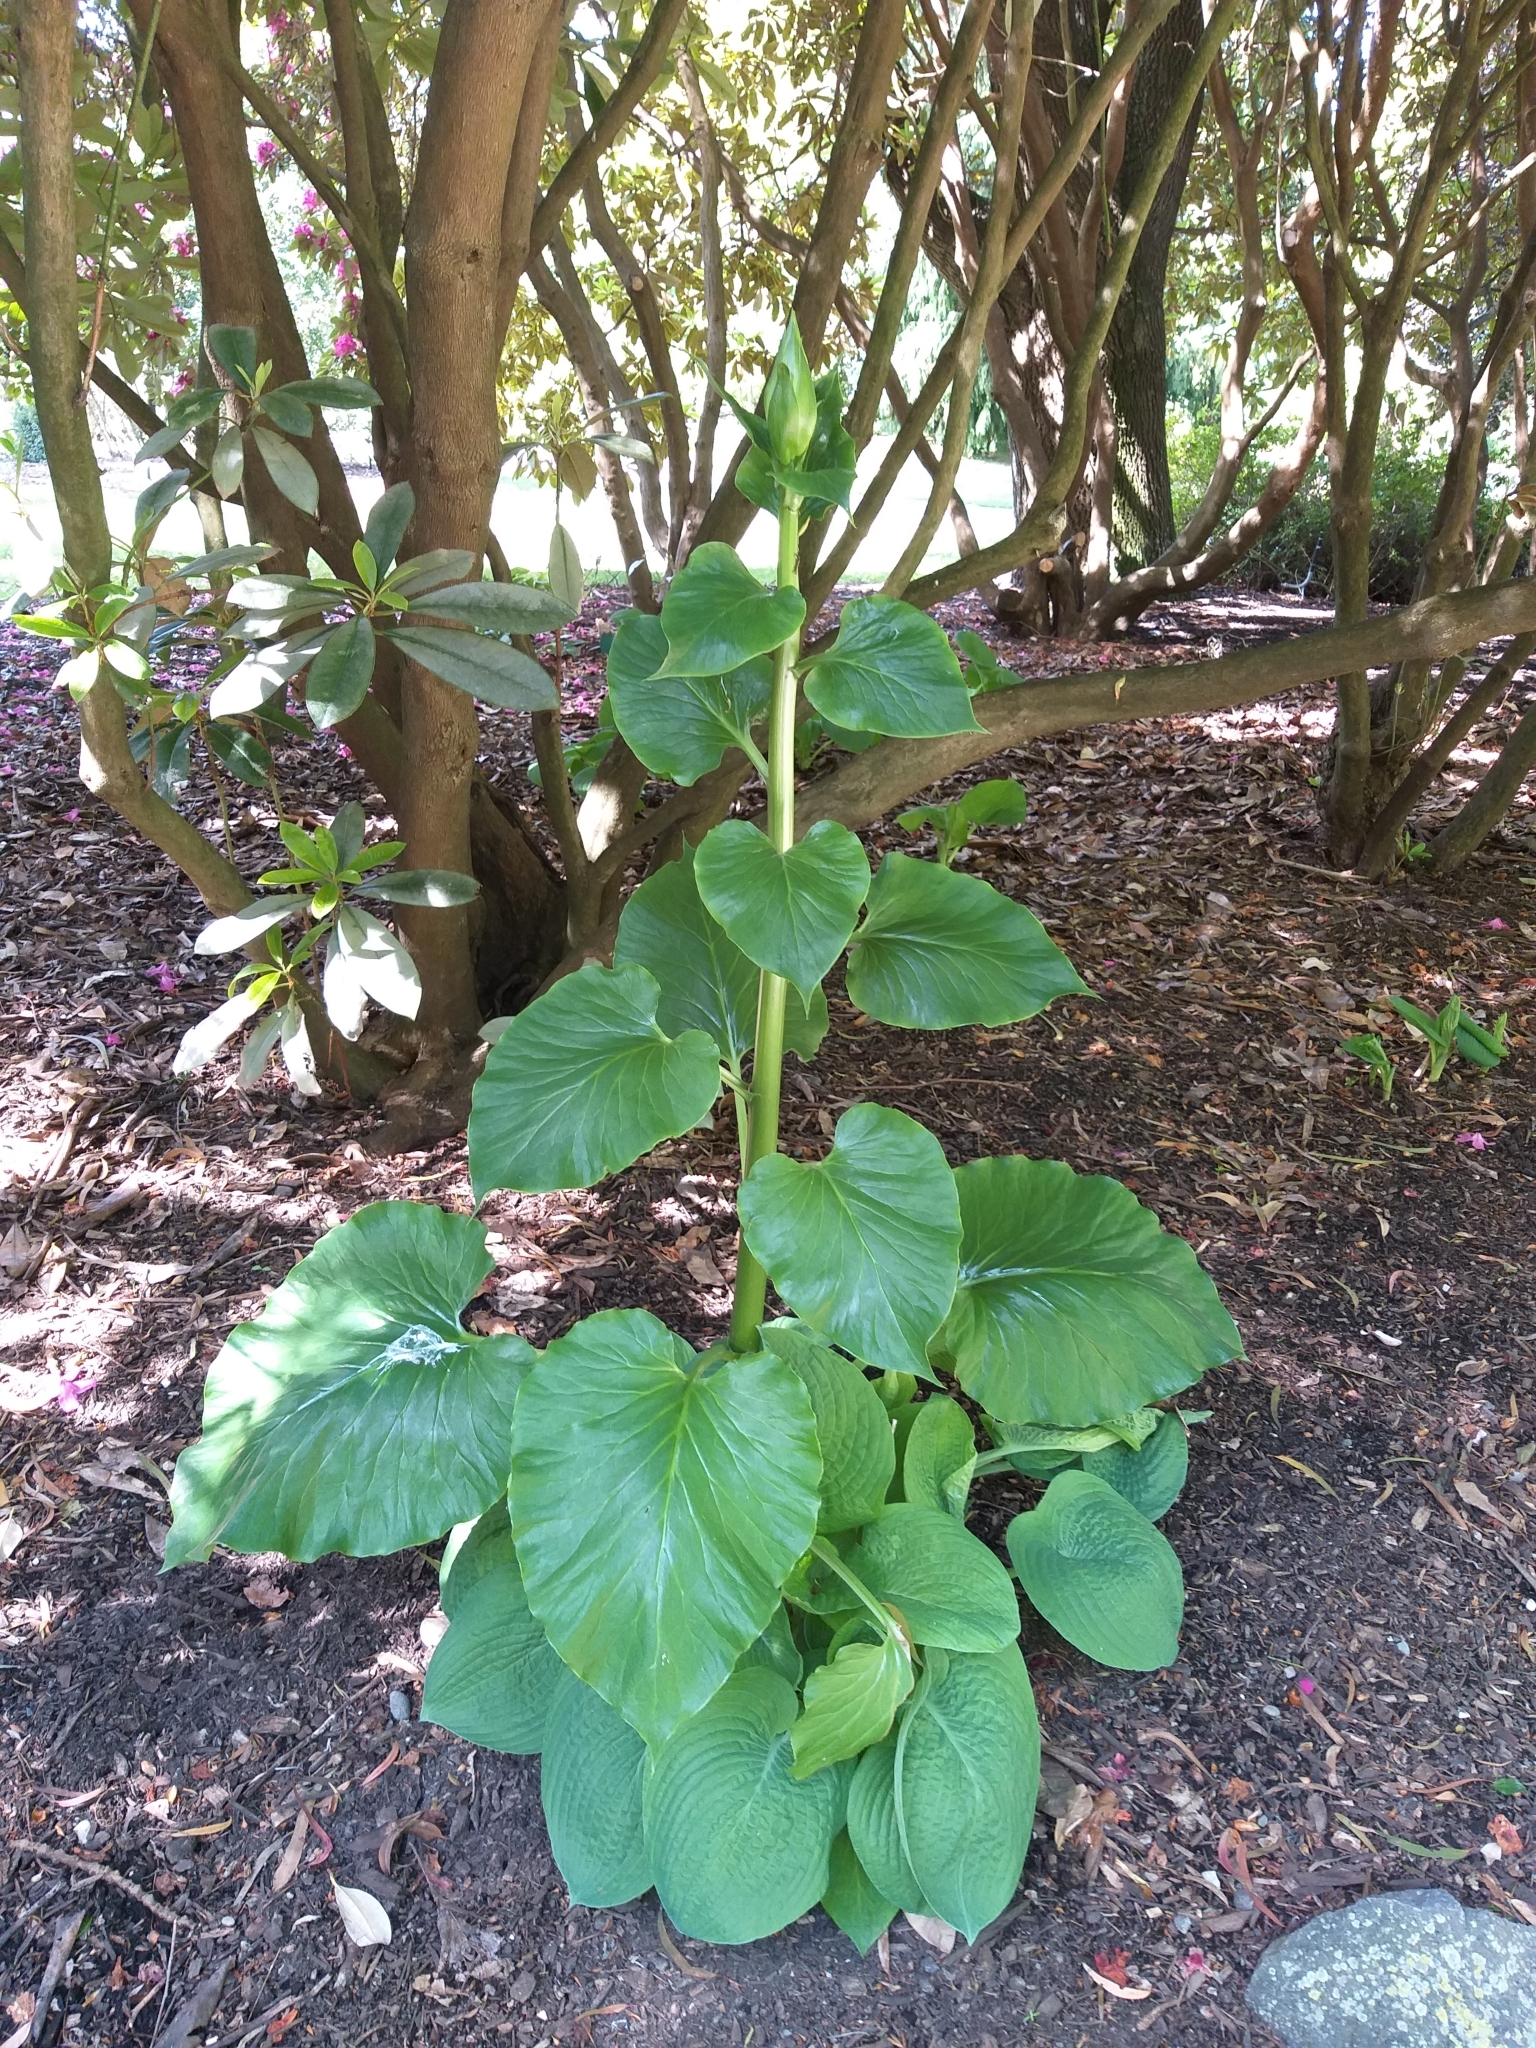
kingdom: Plantae
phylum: Tracheophyta
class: Liliopsida
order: Liliales
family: Liliaceae
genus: Cardiocrinum
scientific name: Cardiocrinum giganteum
